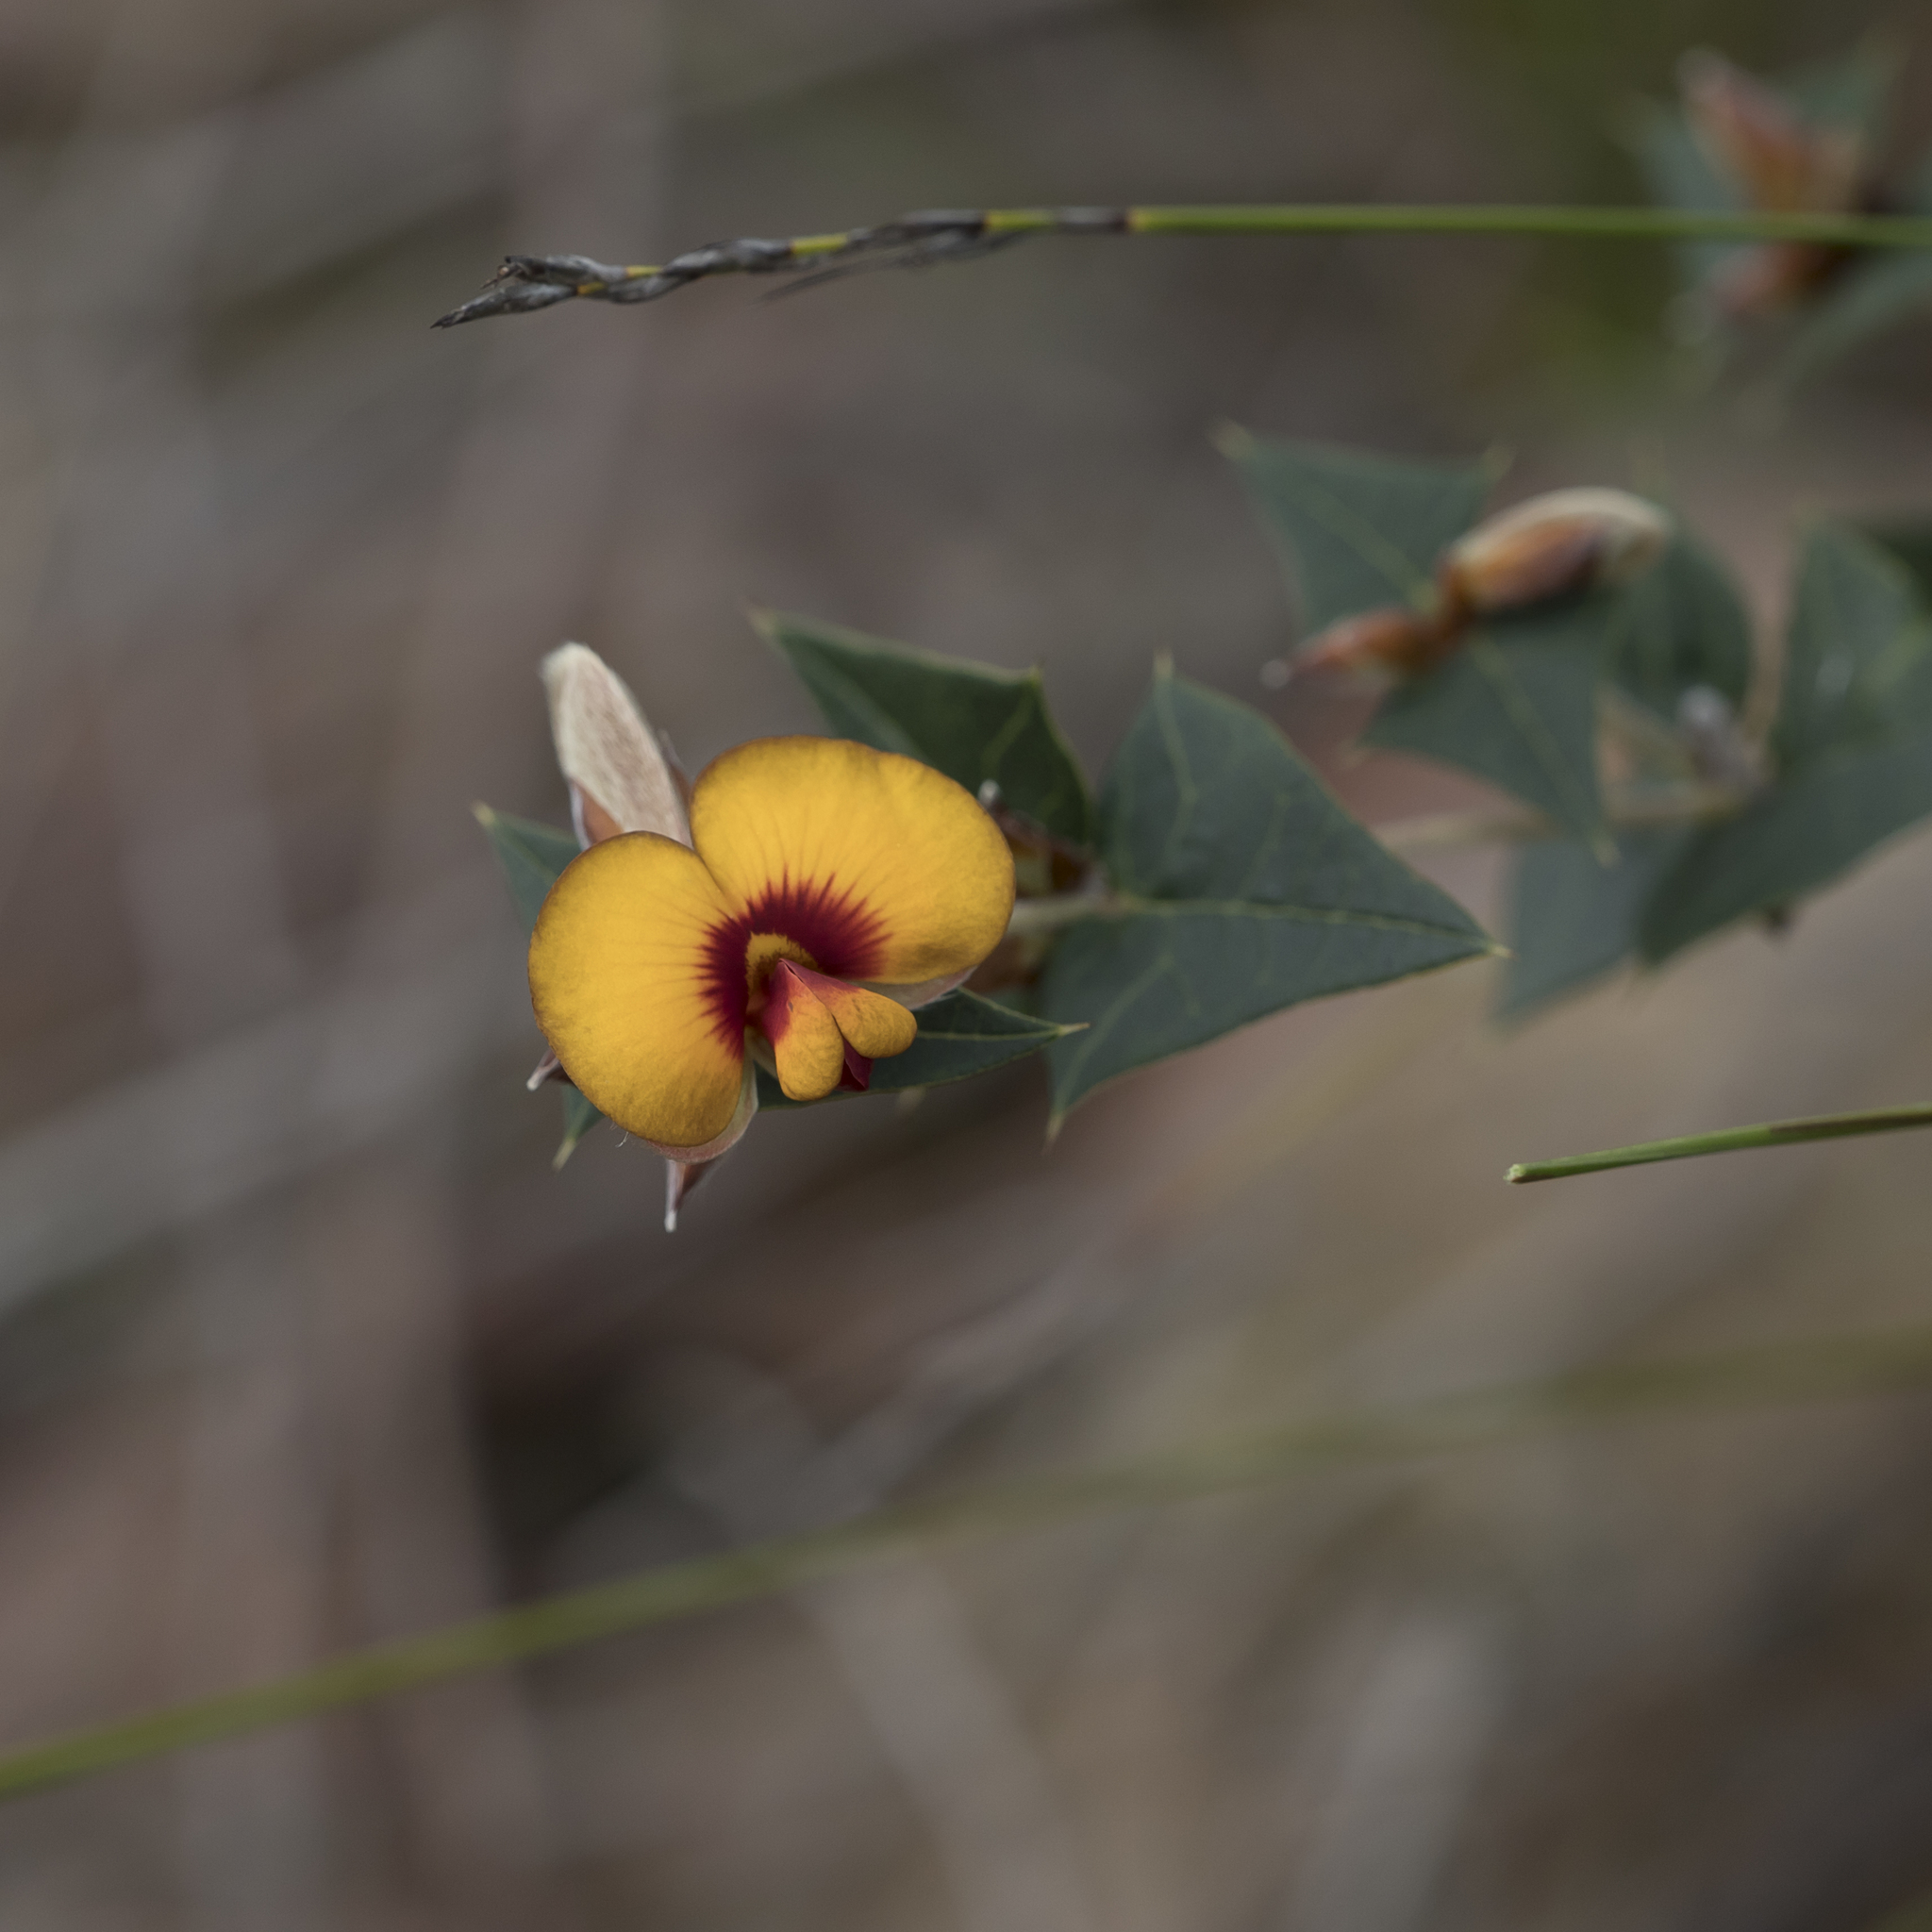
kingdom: Plantae
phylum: Tracheophyta
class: Magnoliopsida
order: Fabales
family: Fabaceae
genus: Platylobium
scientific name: Platylobium obtusangulum
